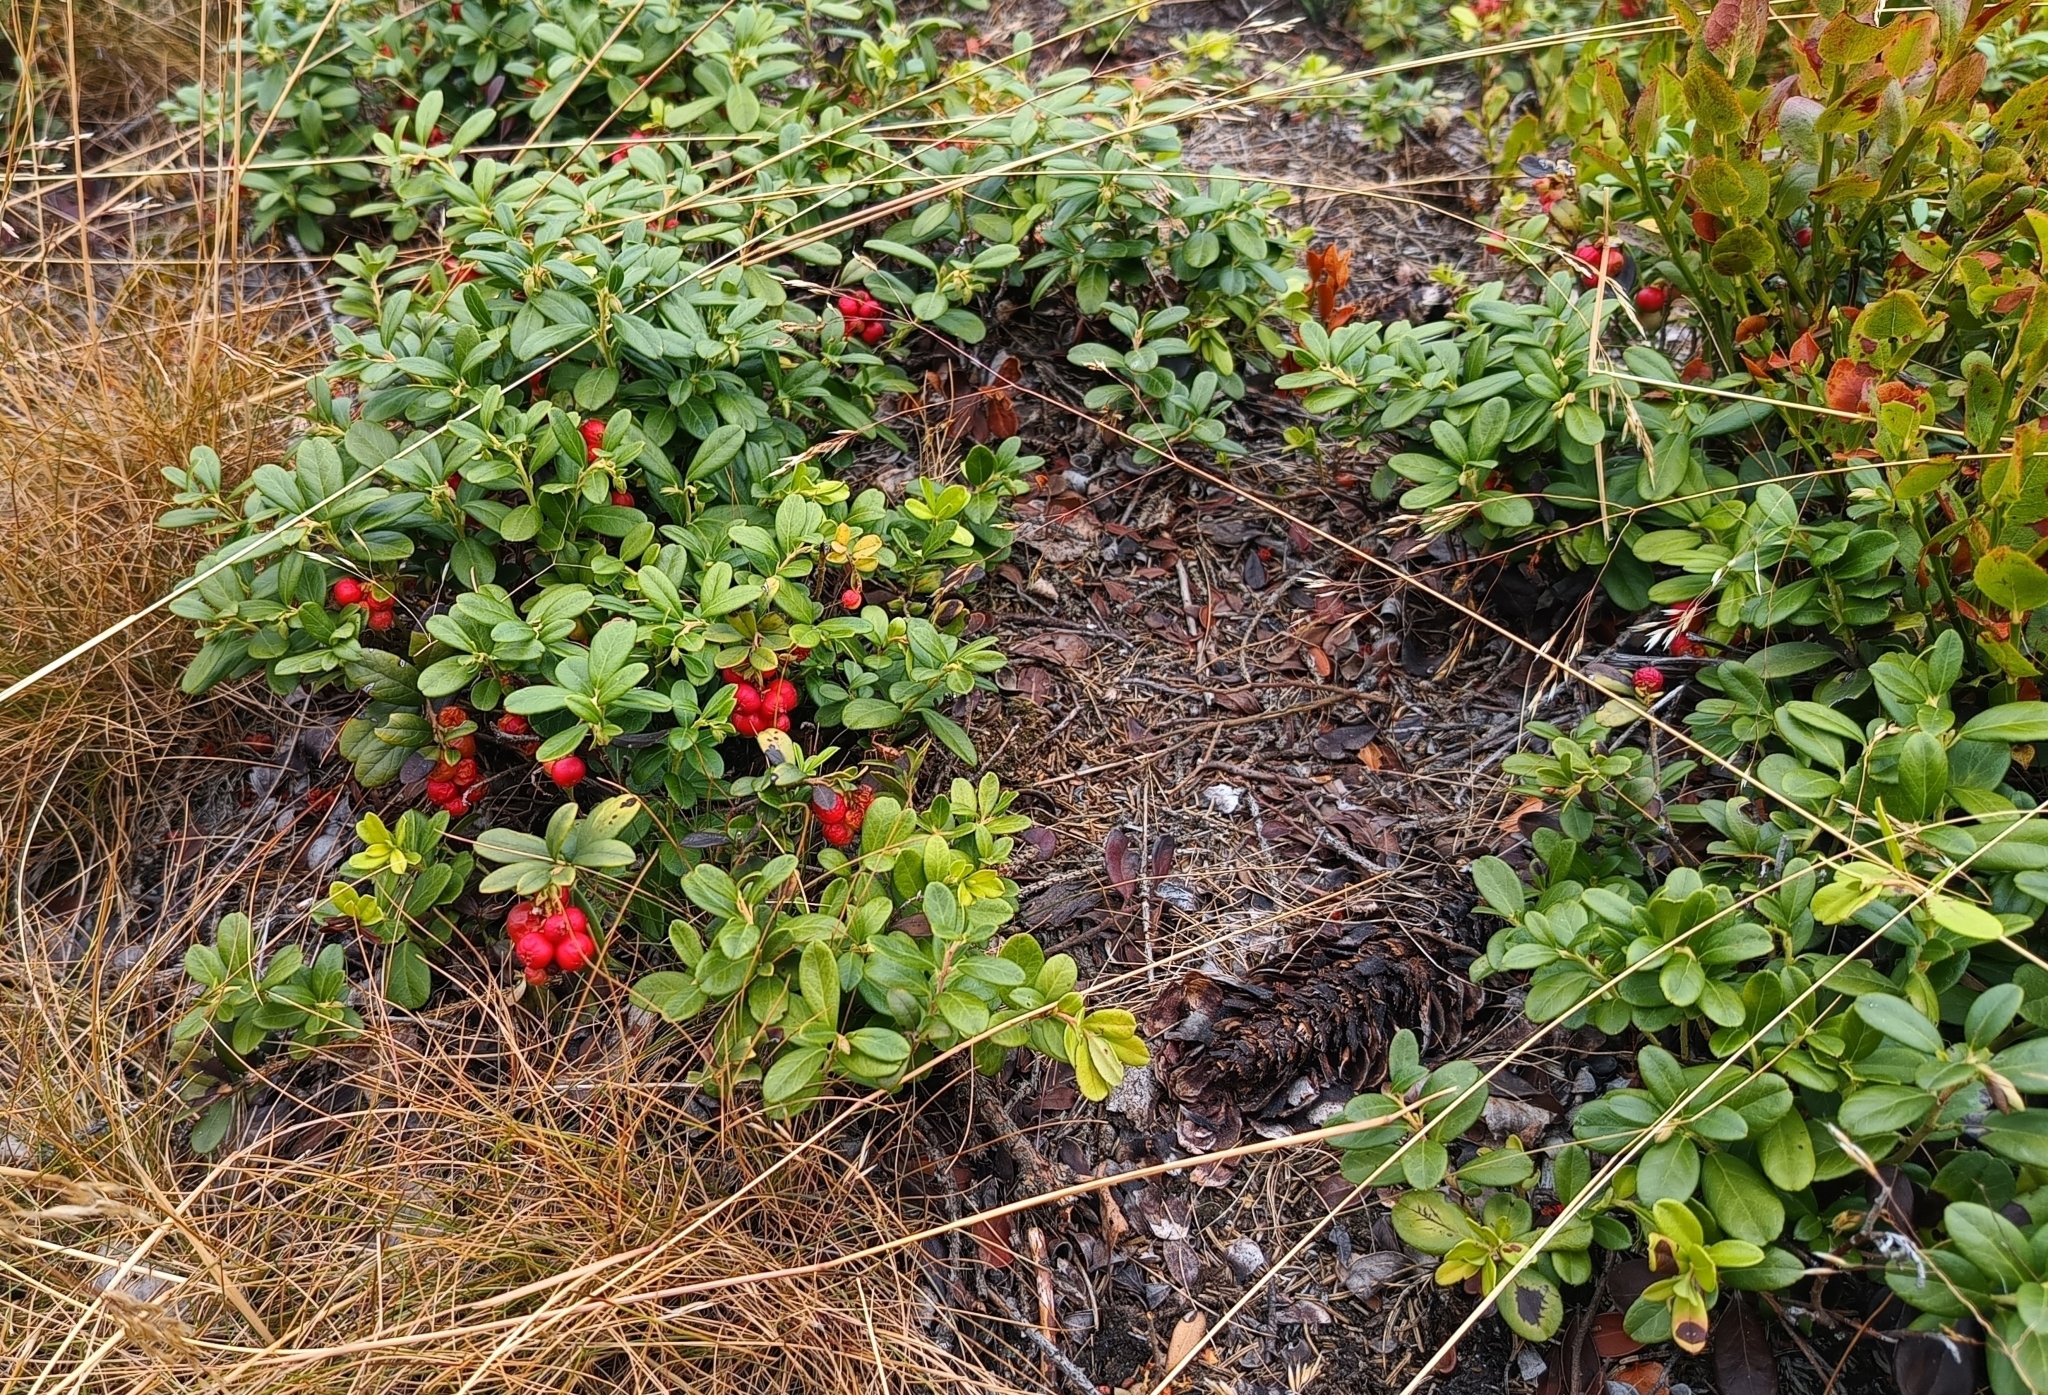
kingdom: Plantae
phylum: Tracheophyta
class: Magnoliopsida
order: Ericales
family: Ericaceae
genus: Vaccinium
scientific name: Vaccinium vitis-idaea
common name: Cowberry
